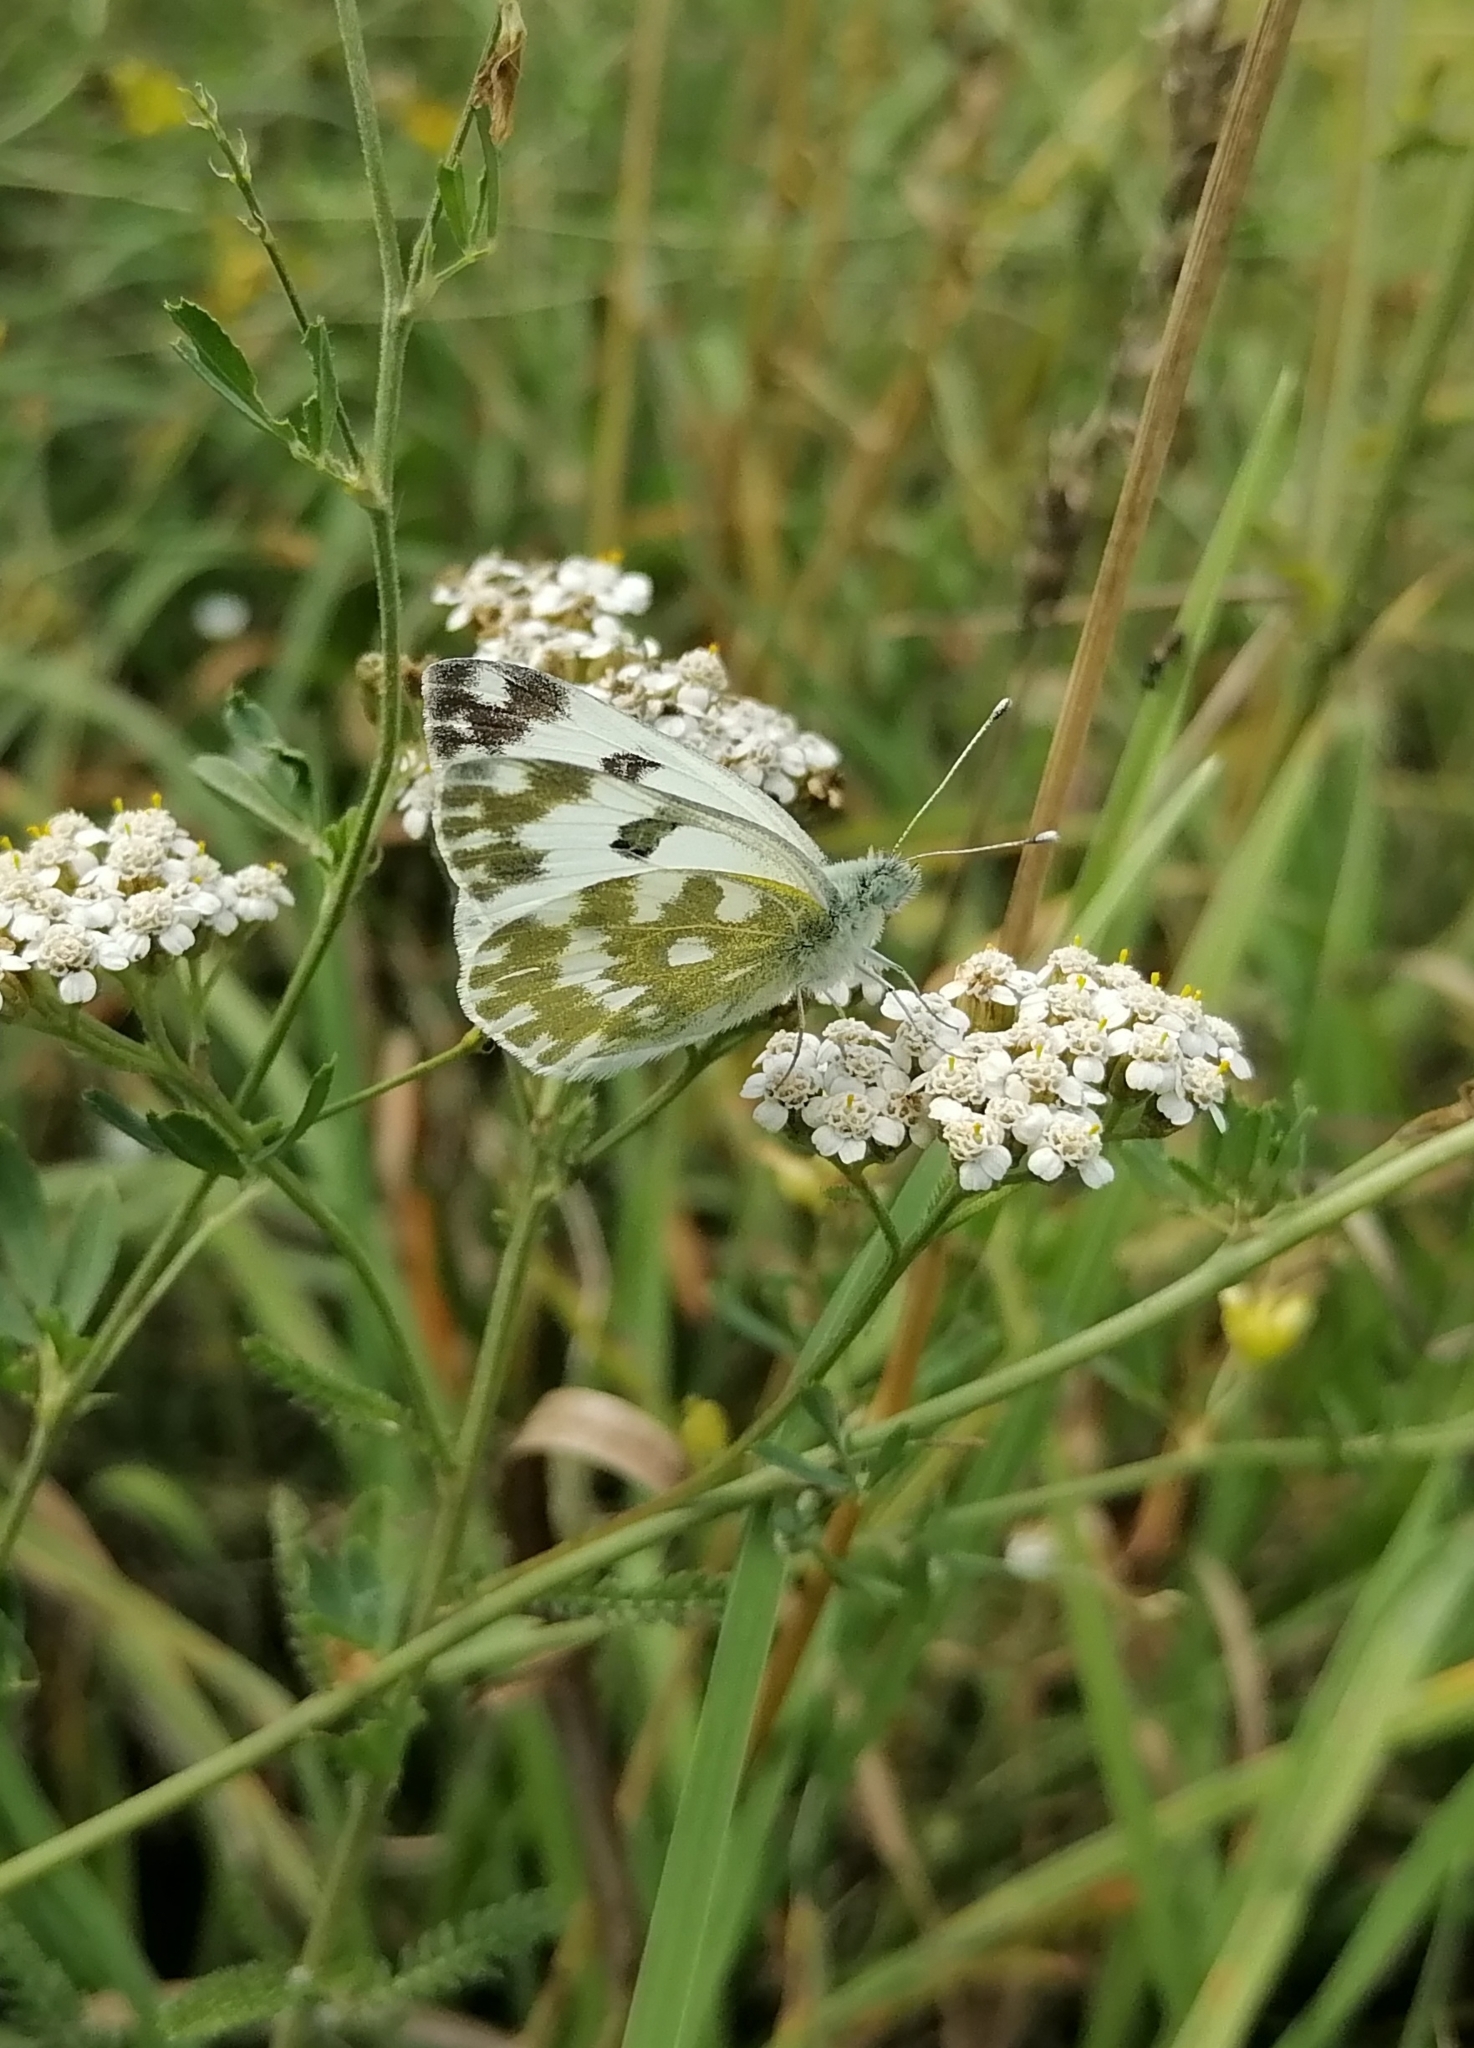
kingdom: Animalia
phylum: Arthropoda
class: Insecta
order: Lepidoptera
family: Pieridae
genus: Pontia
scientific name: Pontia edusa
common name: Eastern bath white
